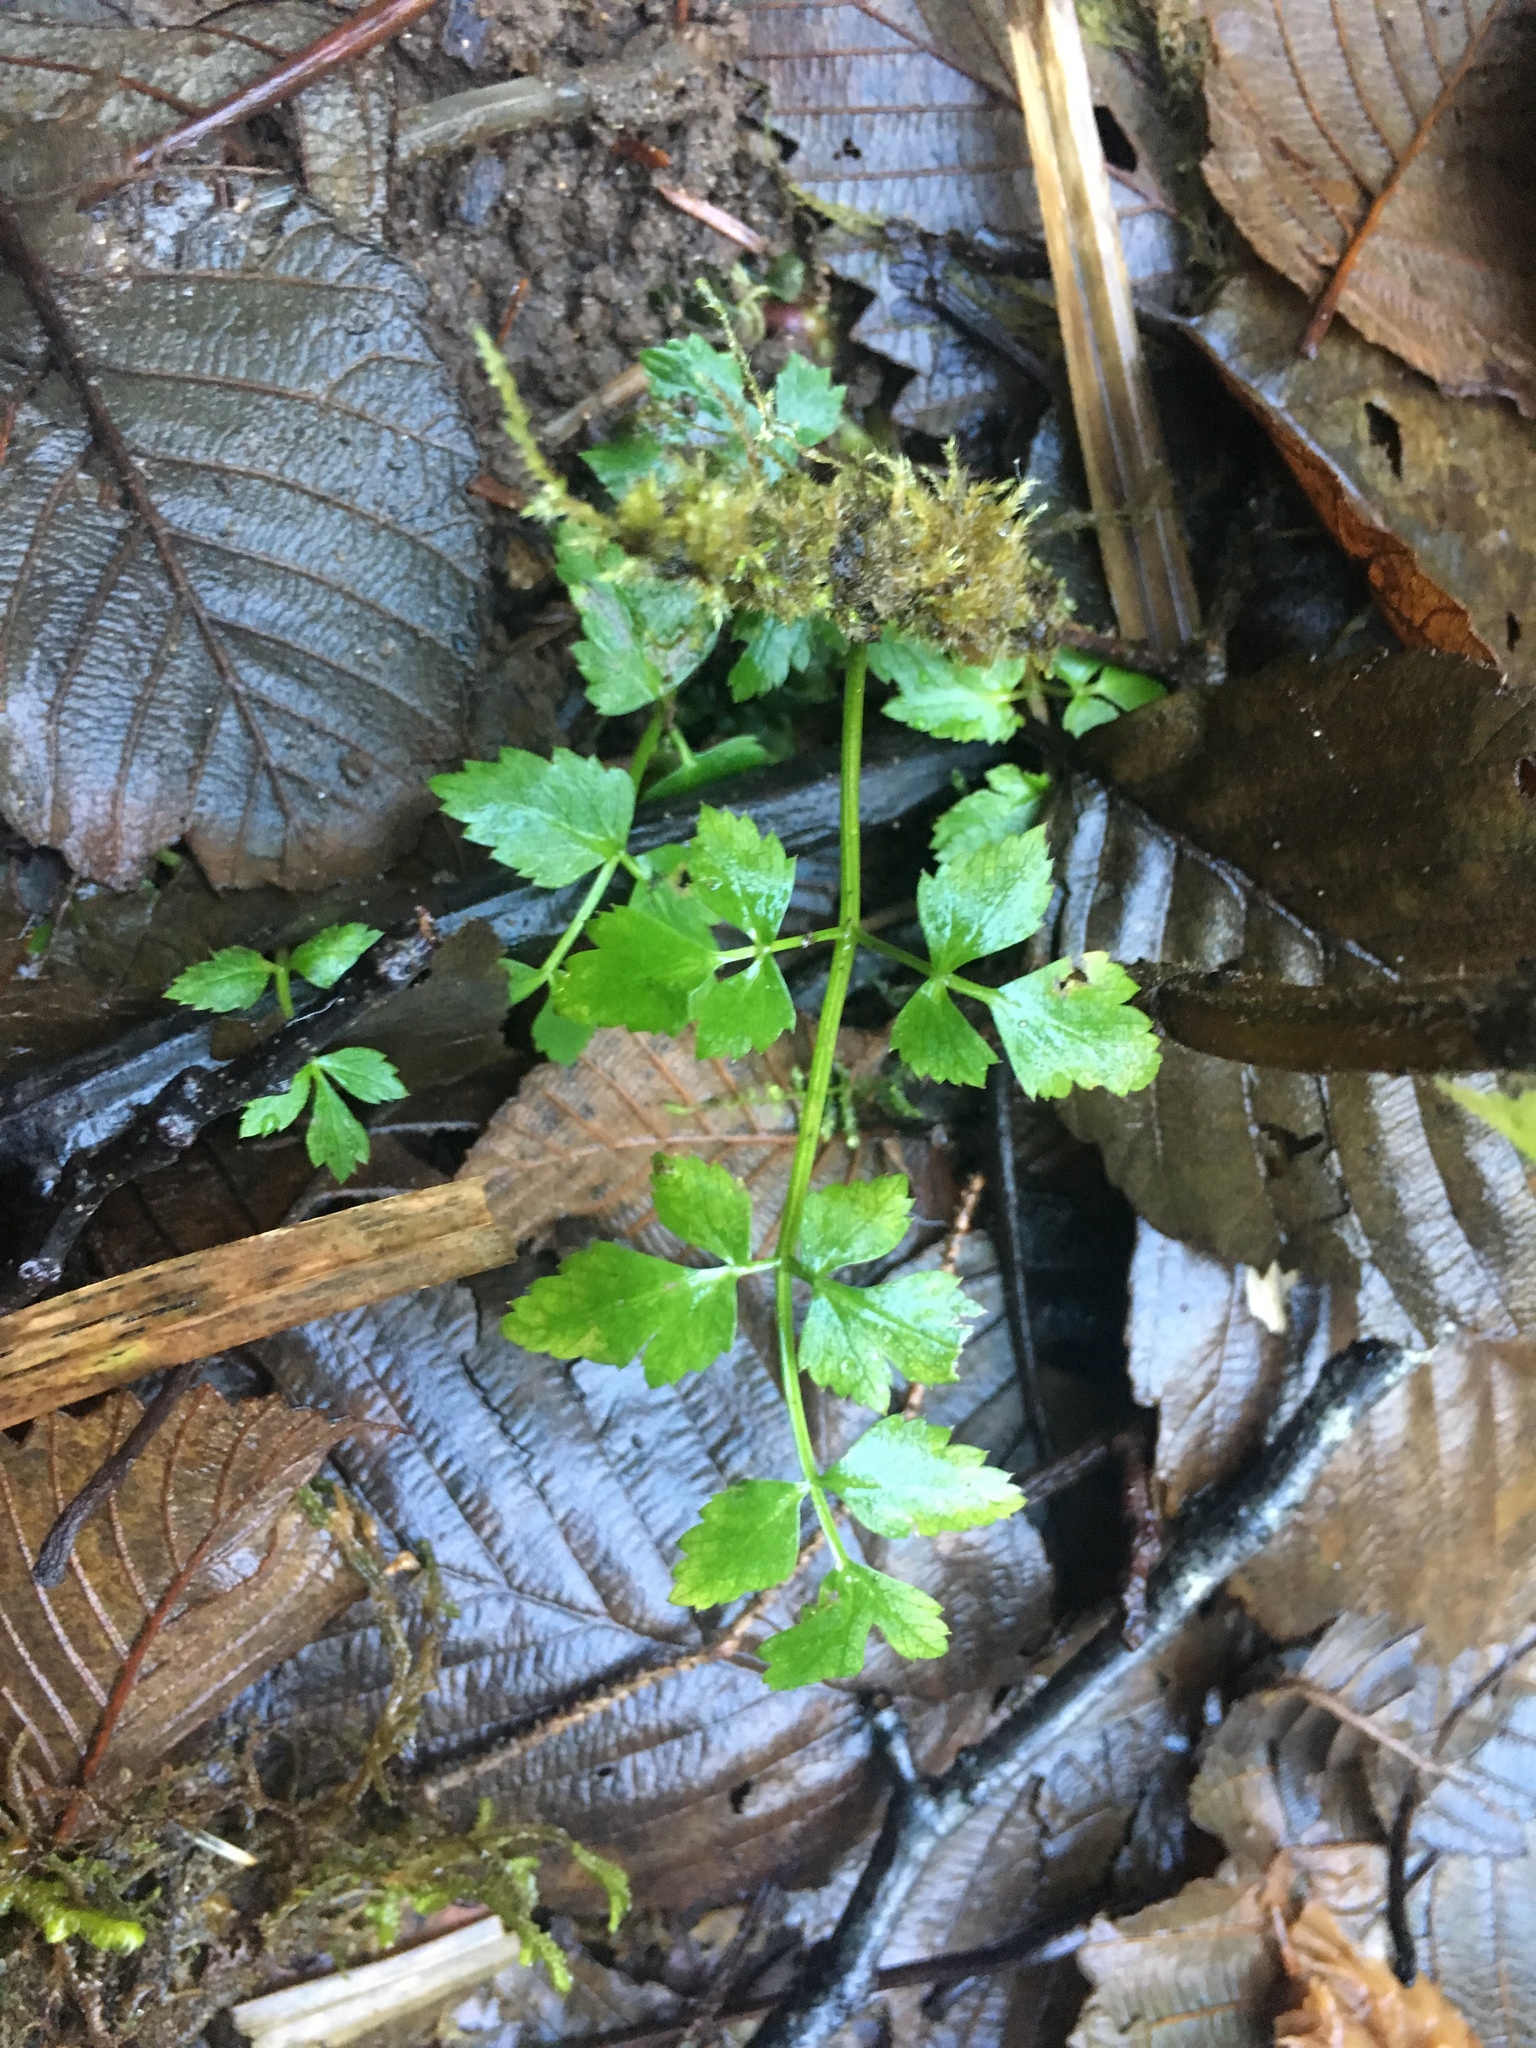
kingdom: Plantae
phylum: Tracheophyta
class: Magnoliopsida
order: Apiales
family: Apiaceae
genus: Oenanthe
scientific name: Oenanthe sarmentosa
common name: American water-parsley
